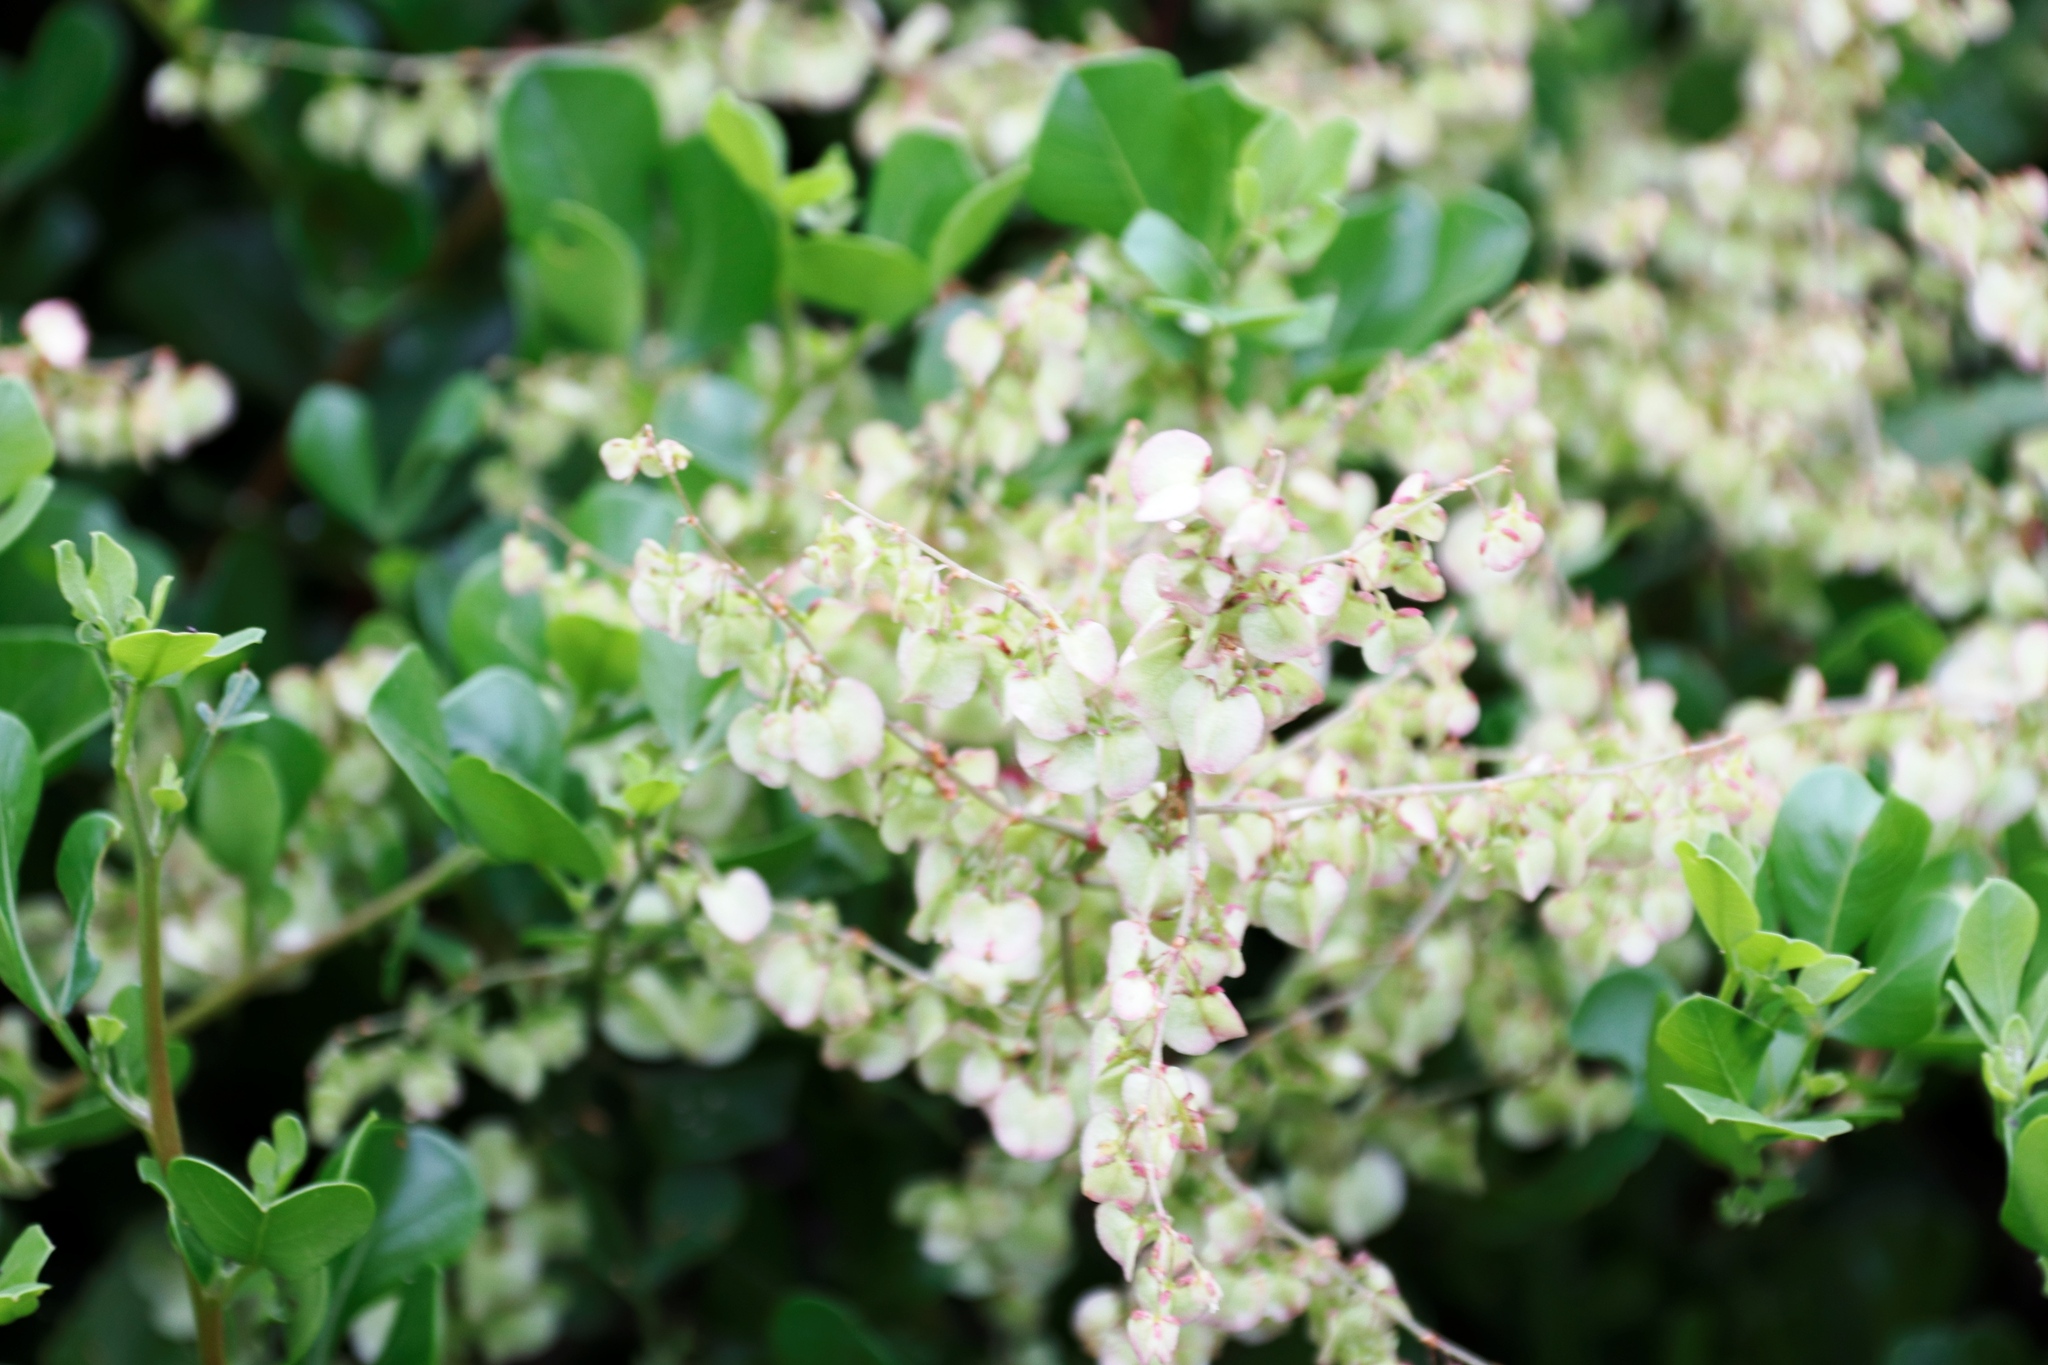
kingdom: Plantae
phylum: Tracheophyta
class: Magnoliopsida
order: Caryophyllales
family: Polygonaceae
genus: Rumex
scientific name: Rumex sagittatus
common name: Climbing dock
